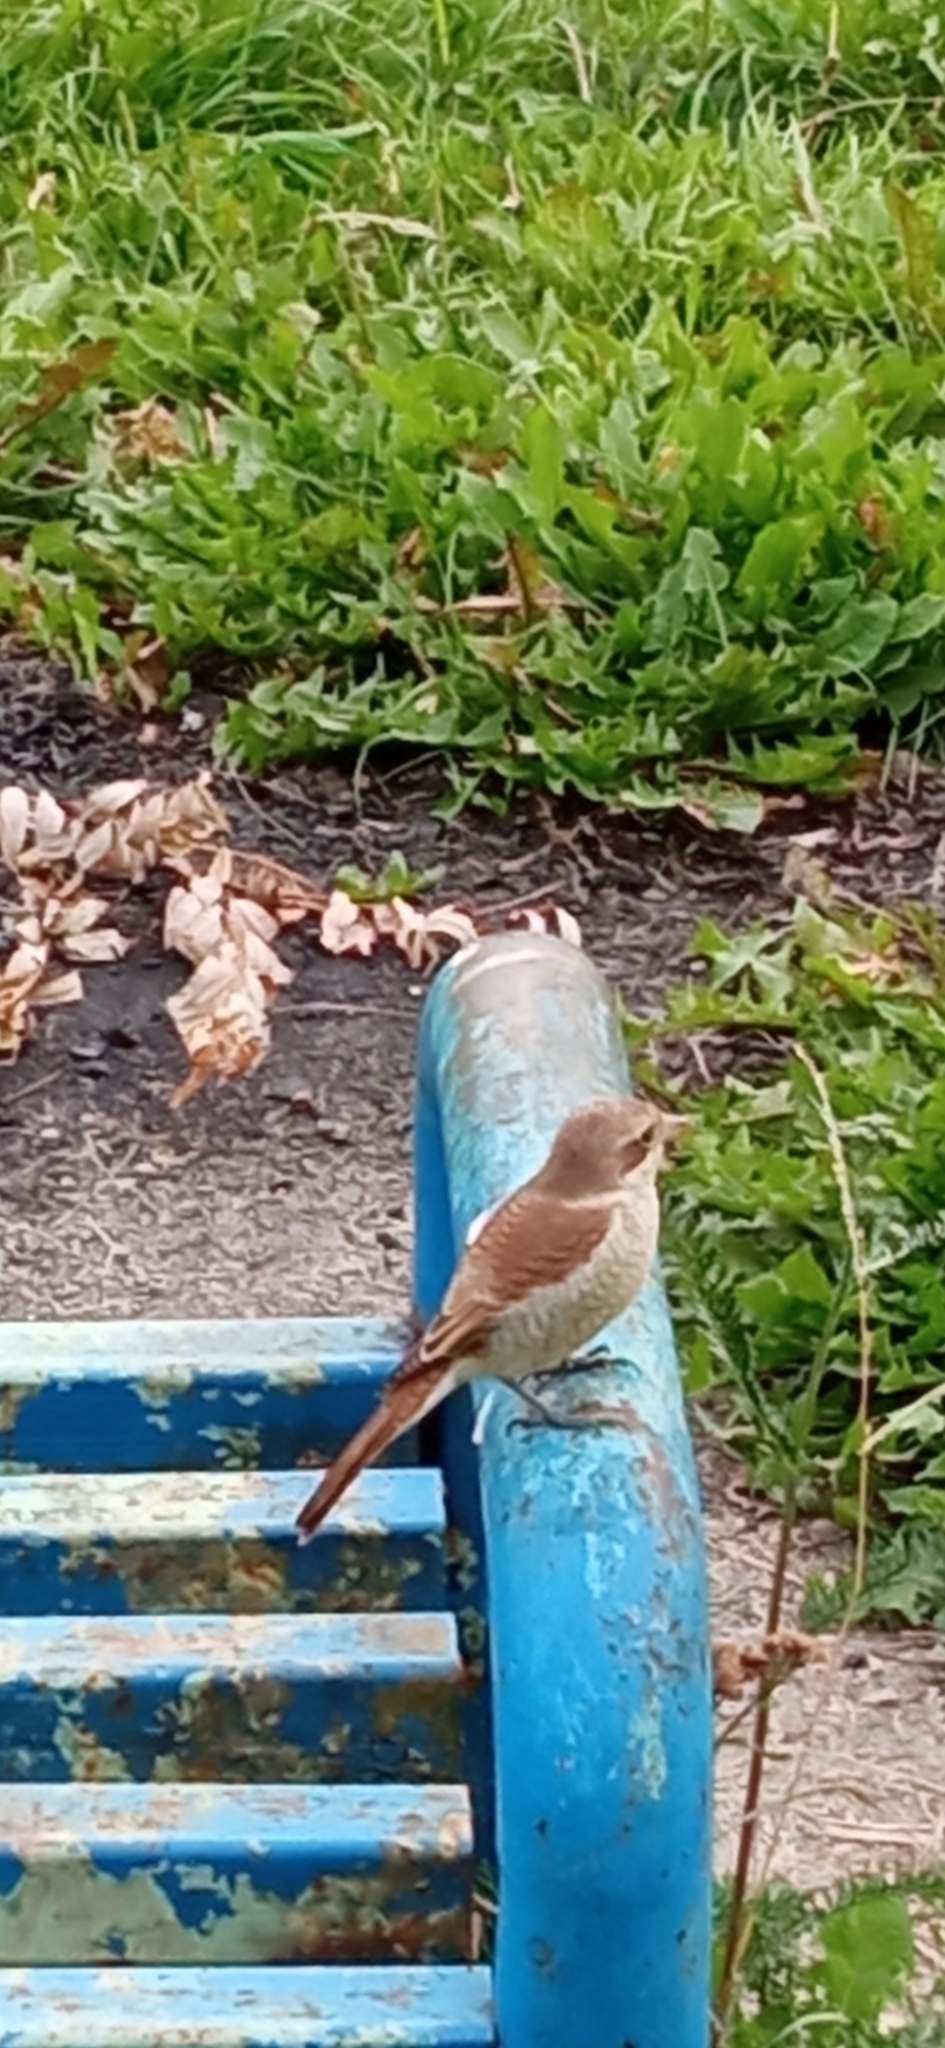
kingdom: Animalia
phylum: Chordata
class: Aves
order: Passeriformes
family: Laniidae
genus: Lanius
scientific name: Lanius collurio
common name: Red-backed shrike
